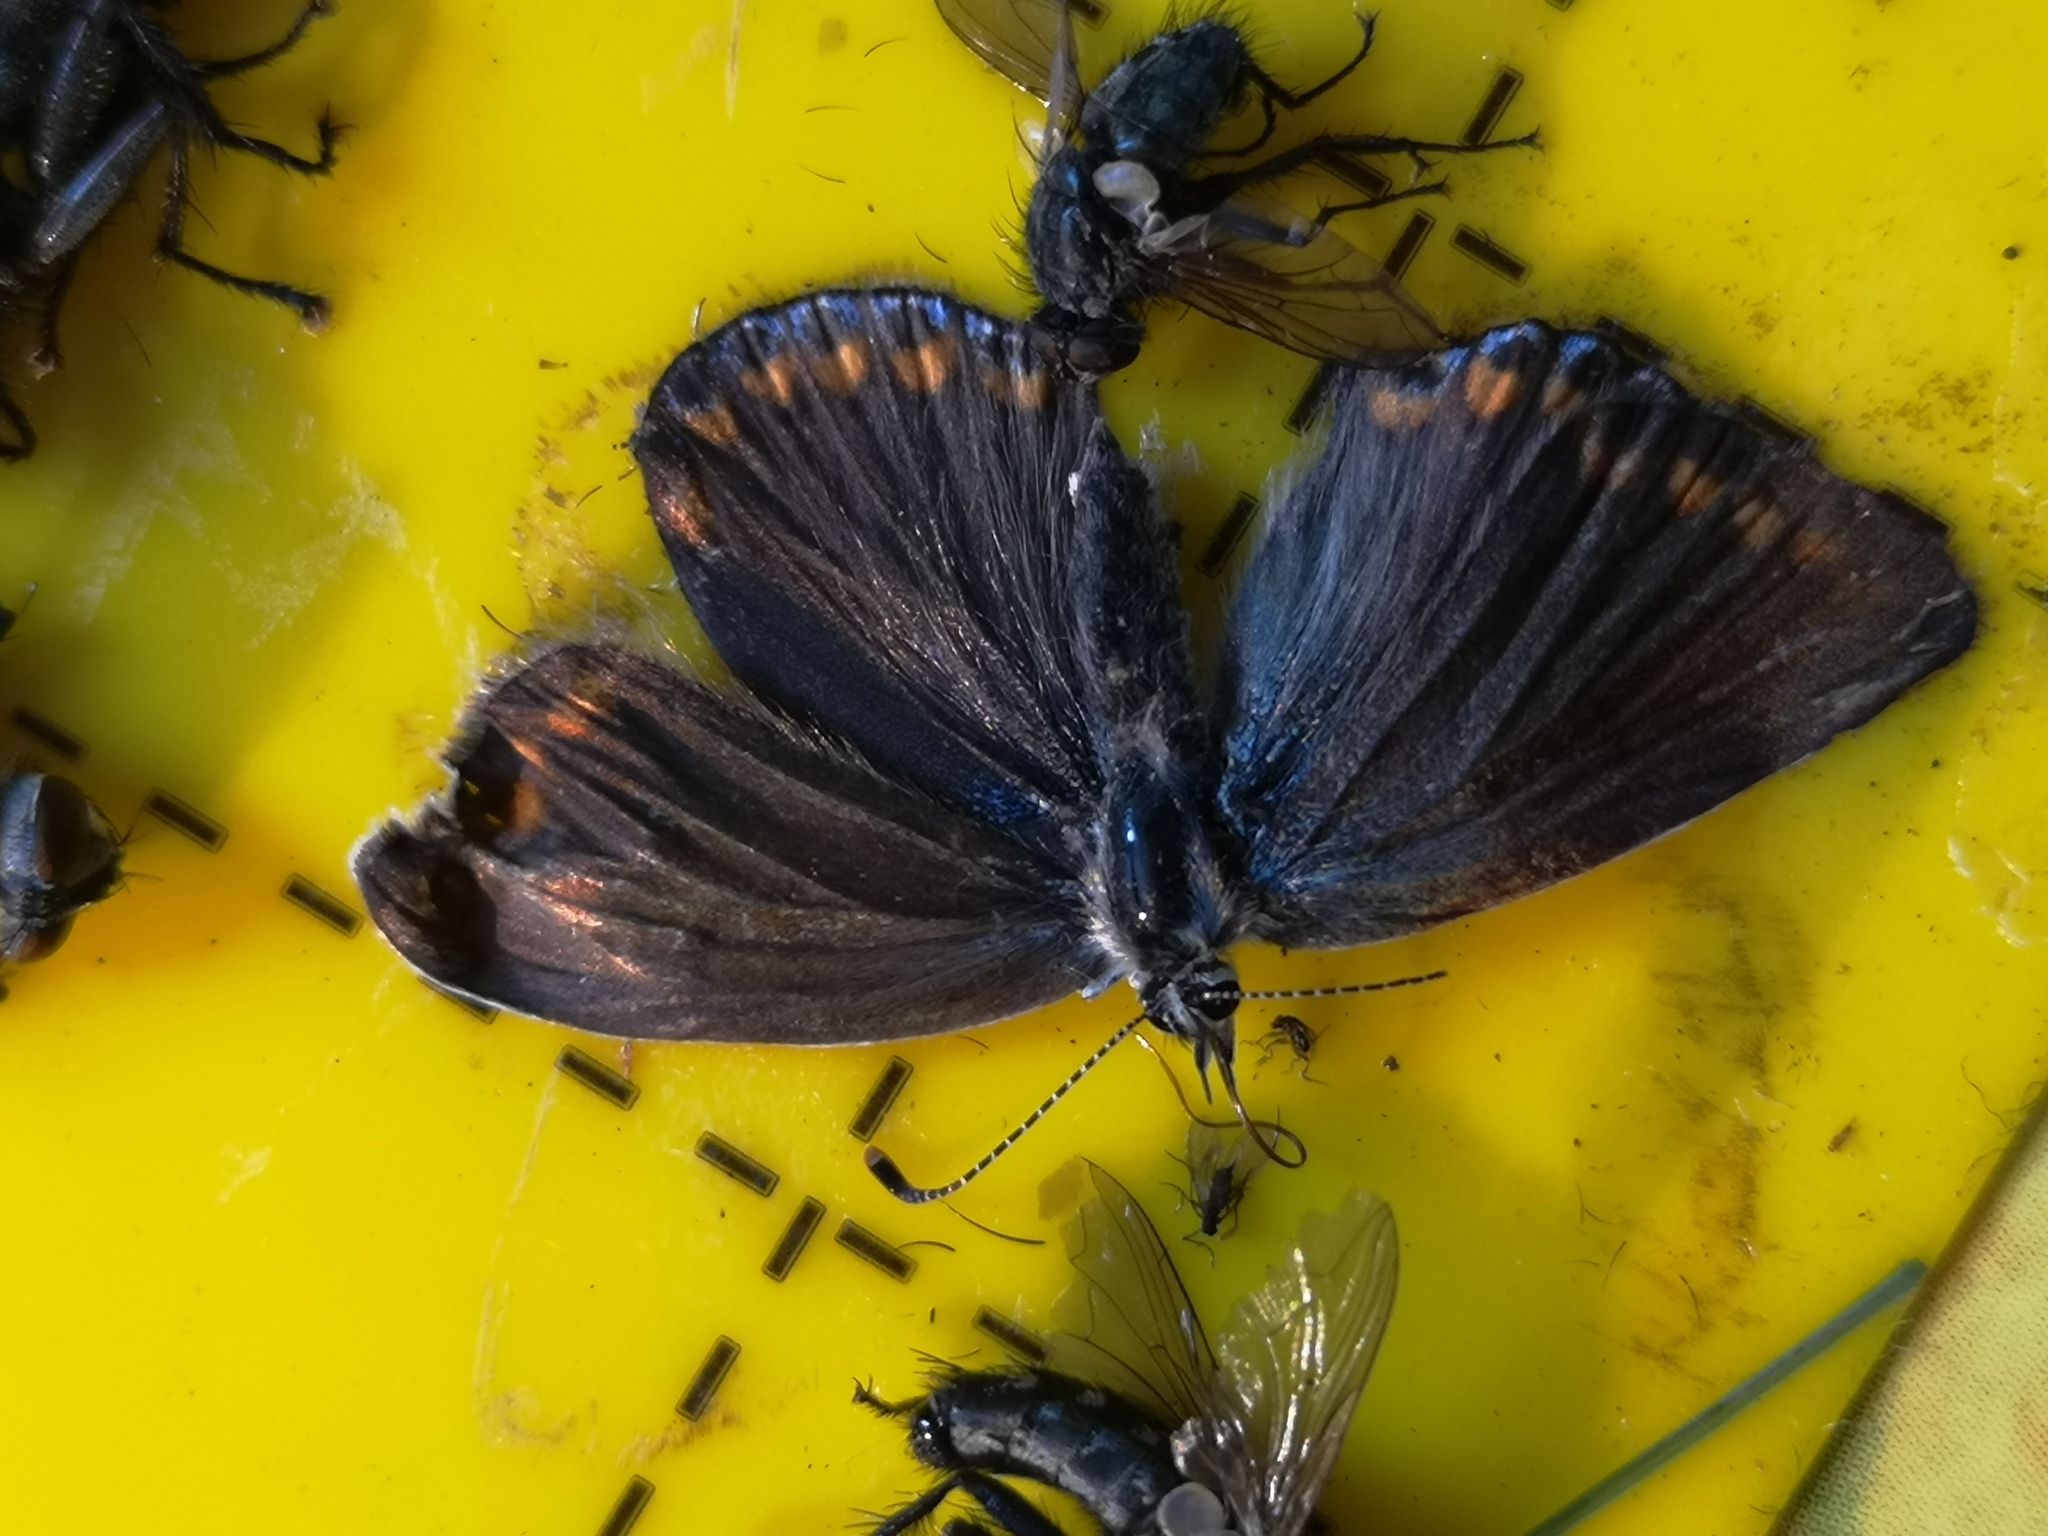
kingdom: Animalia
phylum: Arthropoda
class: Insecta
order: Lepidoptera
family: Lycaenidae
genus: Polyommatus
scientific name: Polyommatus icarus
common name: Common blue
